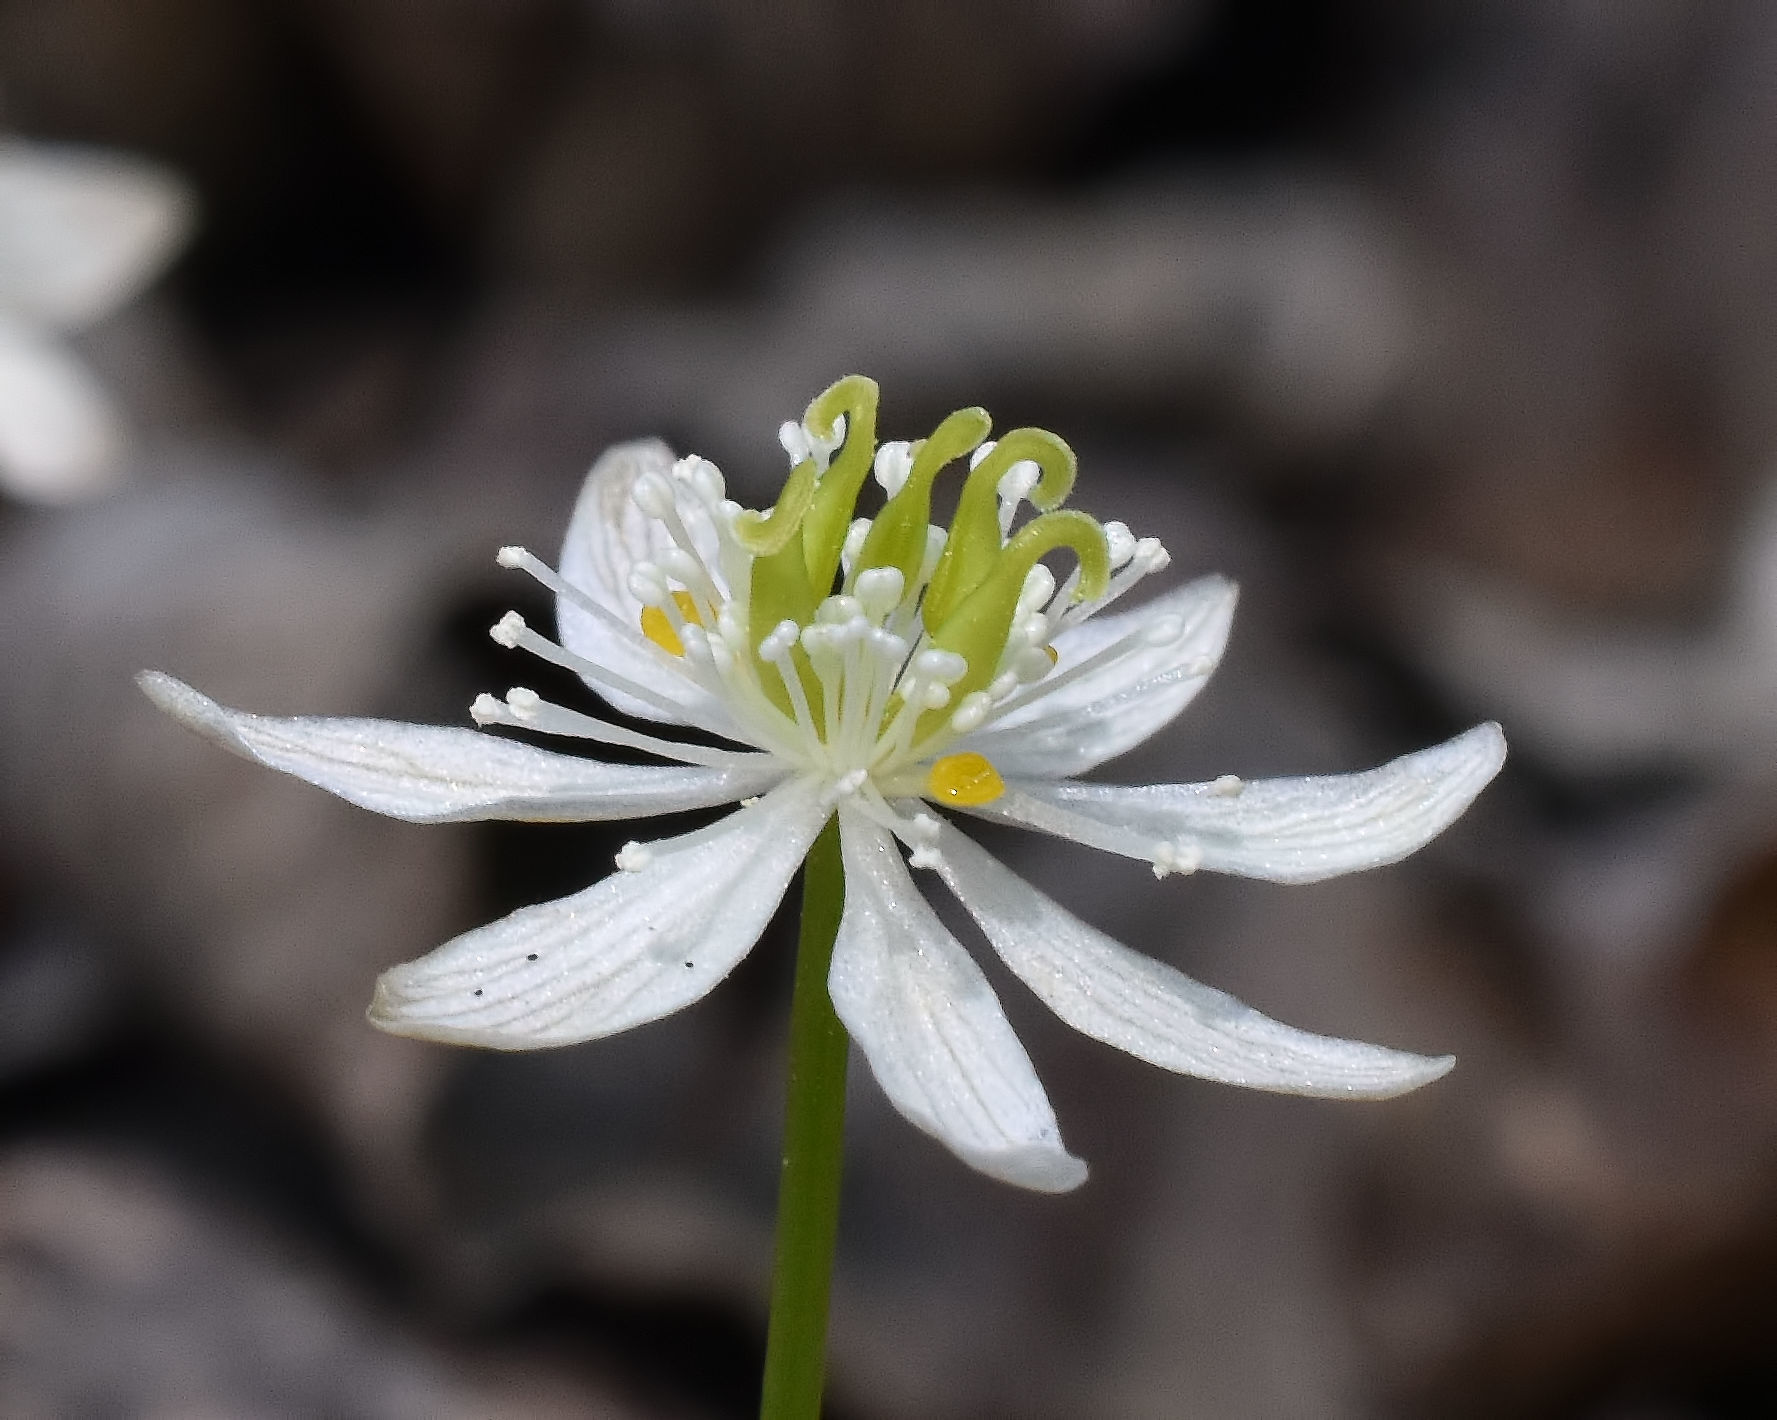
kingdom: Plantae
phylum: Tracheophyta
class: Magnoliopsida
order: Ranunculales
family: Ranunculaceae
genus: Coptis
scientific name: Coptis trifolia
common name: Canker-root
